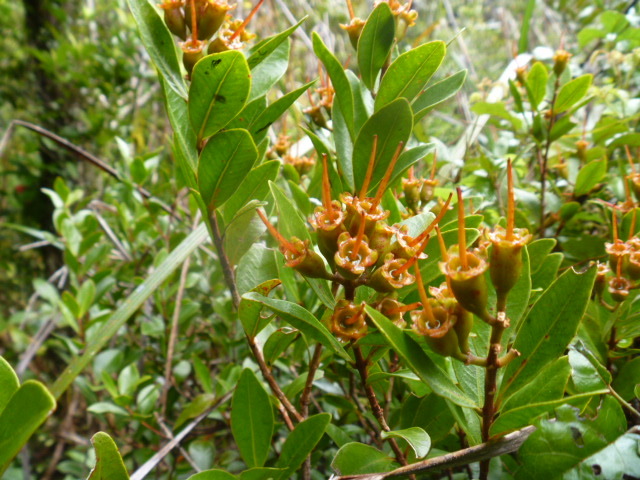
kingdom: Plantae
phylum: Tracheophyta
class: Magnoliopsida
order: Myrtales
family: Myrtaceae
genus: Metrosideros
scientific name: Metrosideros fulgens
